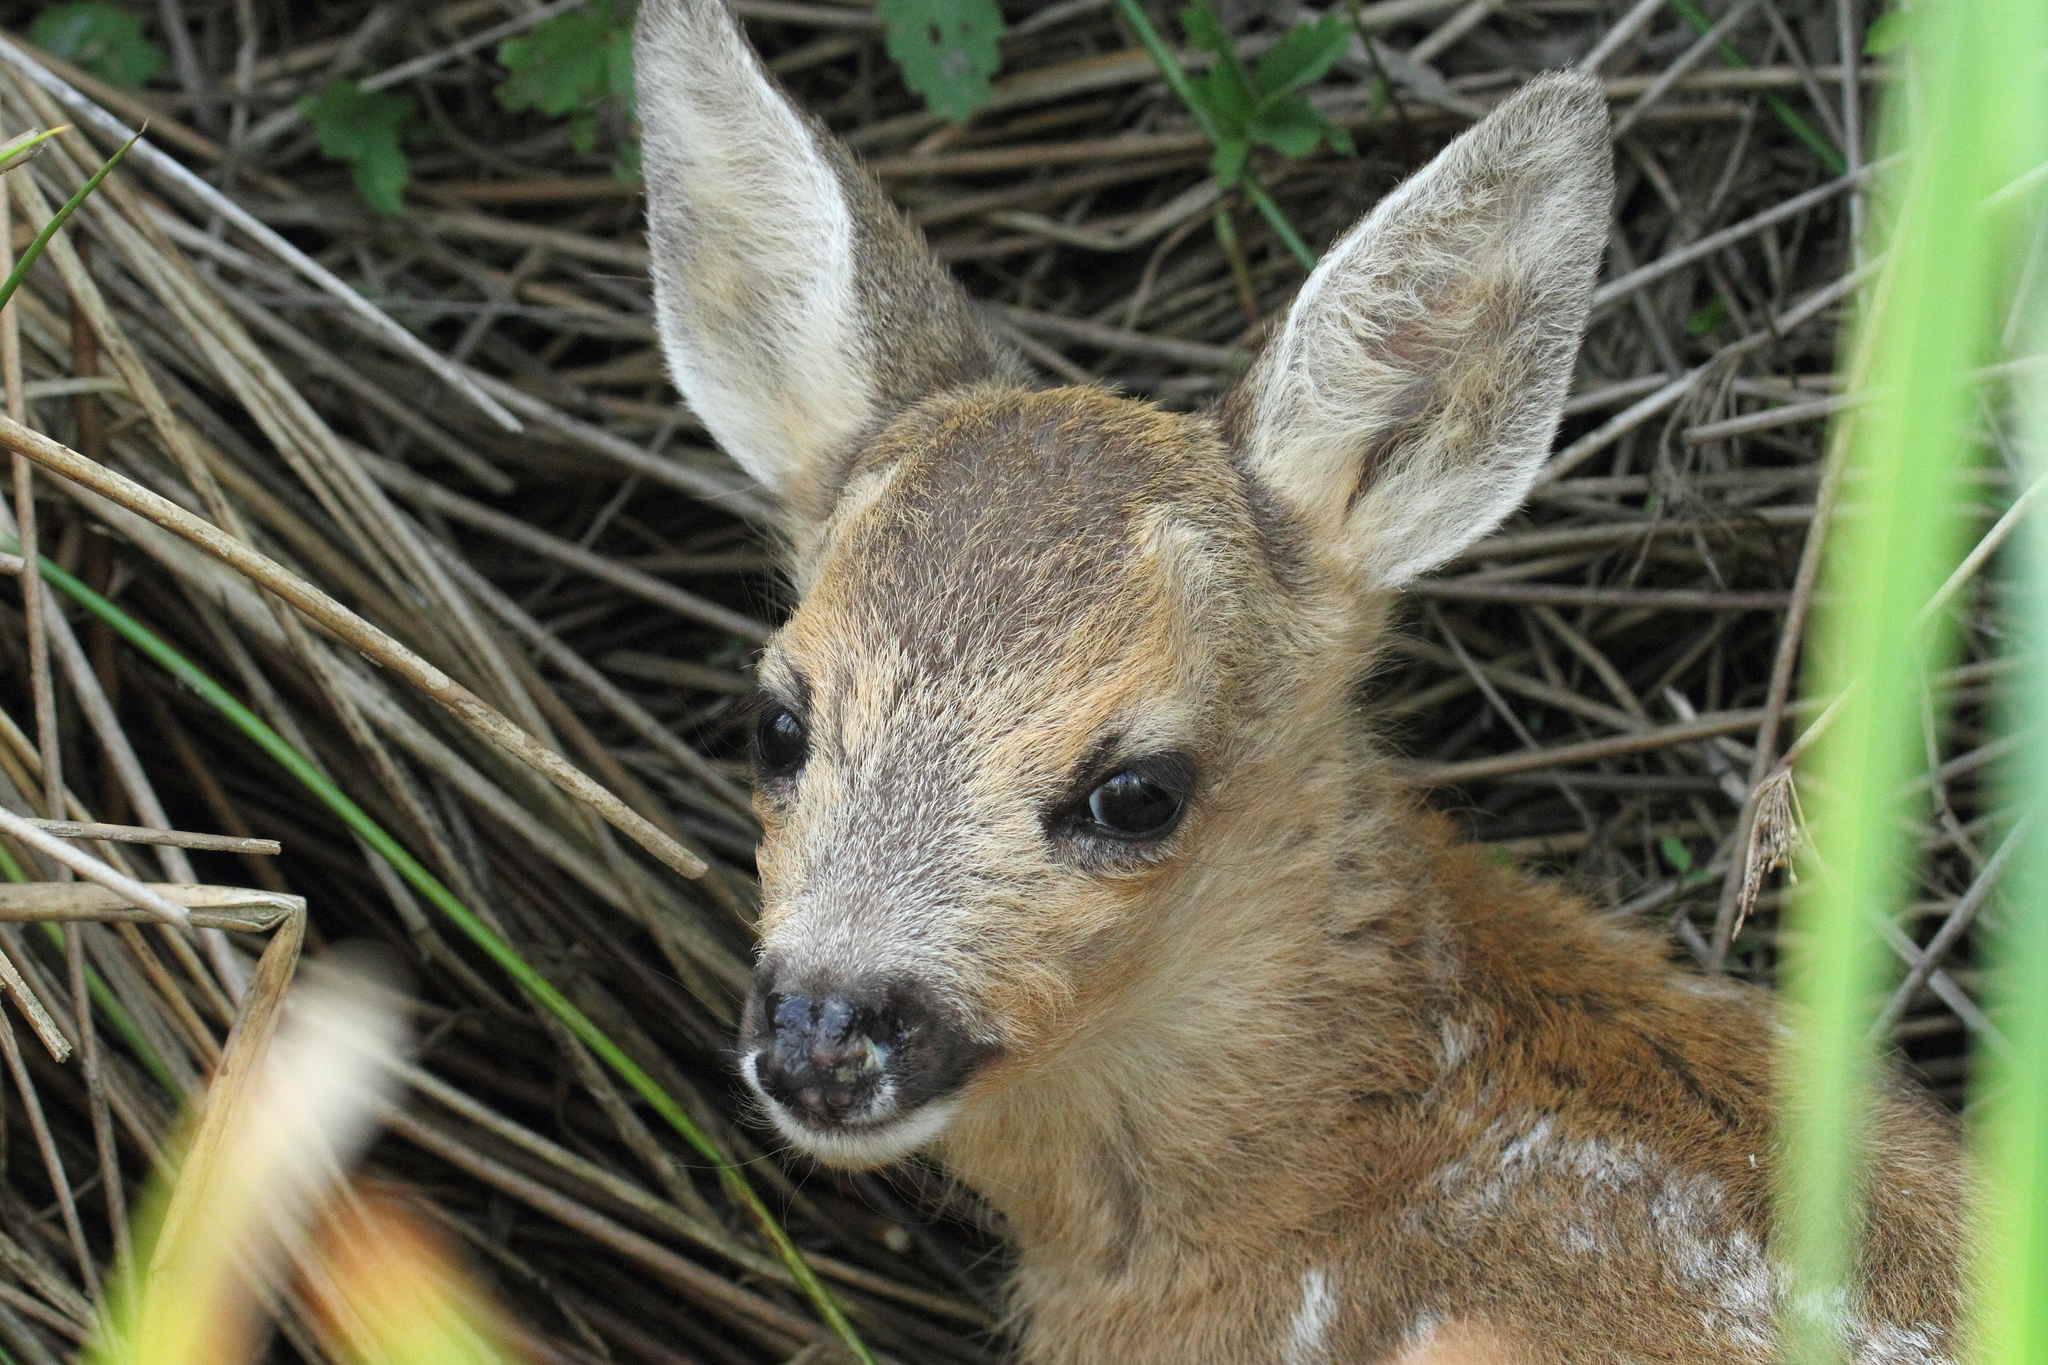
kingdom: Animalia
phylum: Chordata
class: Mammalia
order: Artiodactyla
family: Cervidae
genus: Capreolus
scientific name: Capreolus capreolus
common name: Western roe deer
